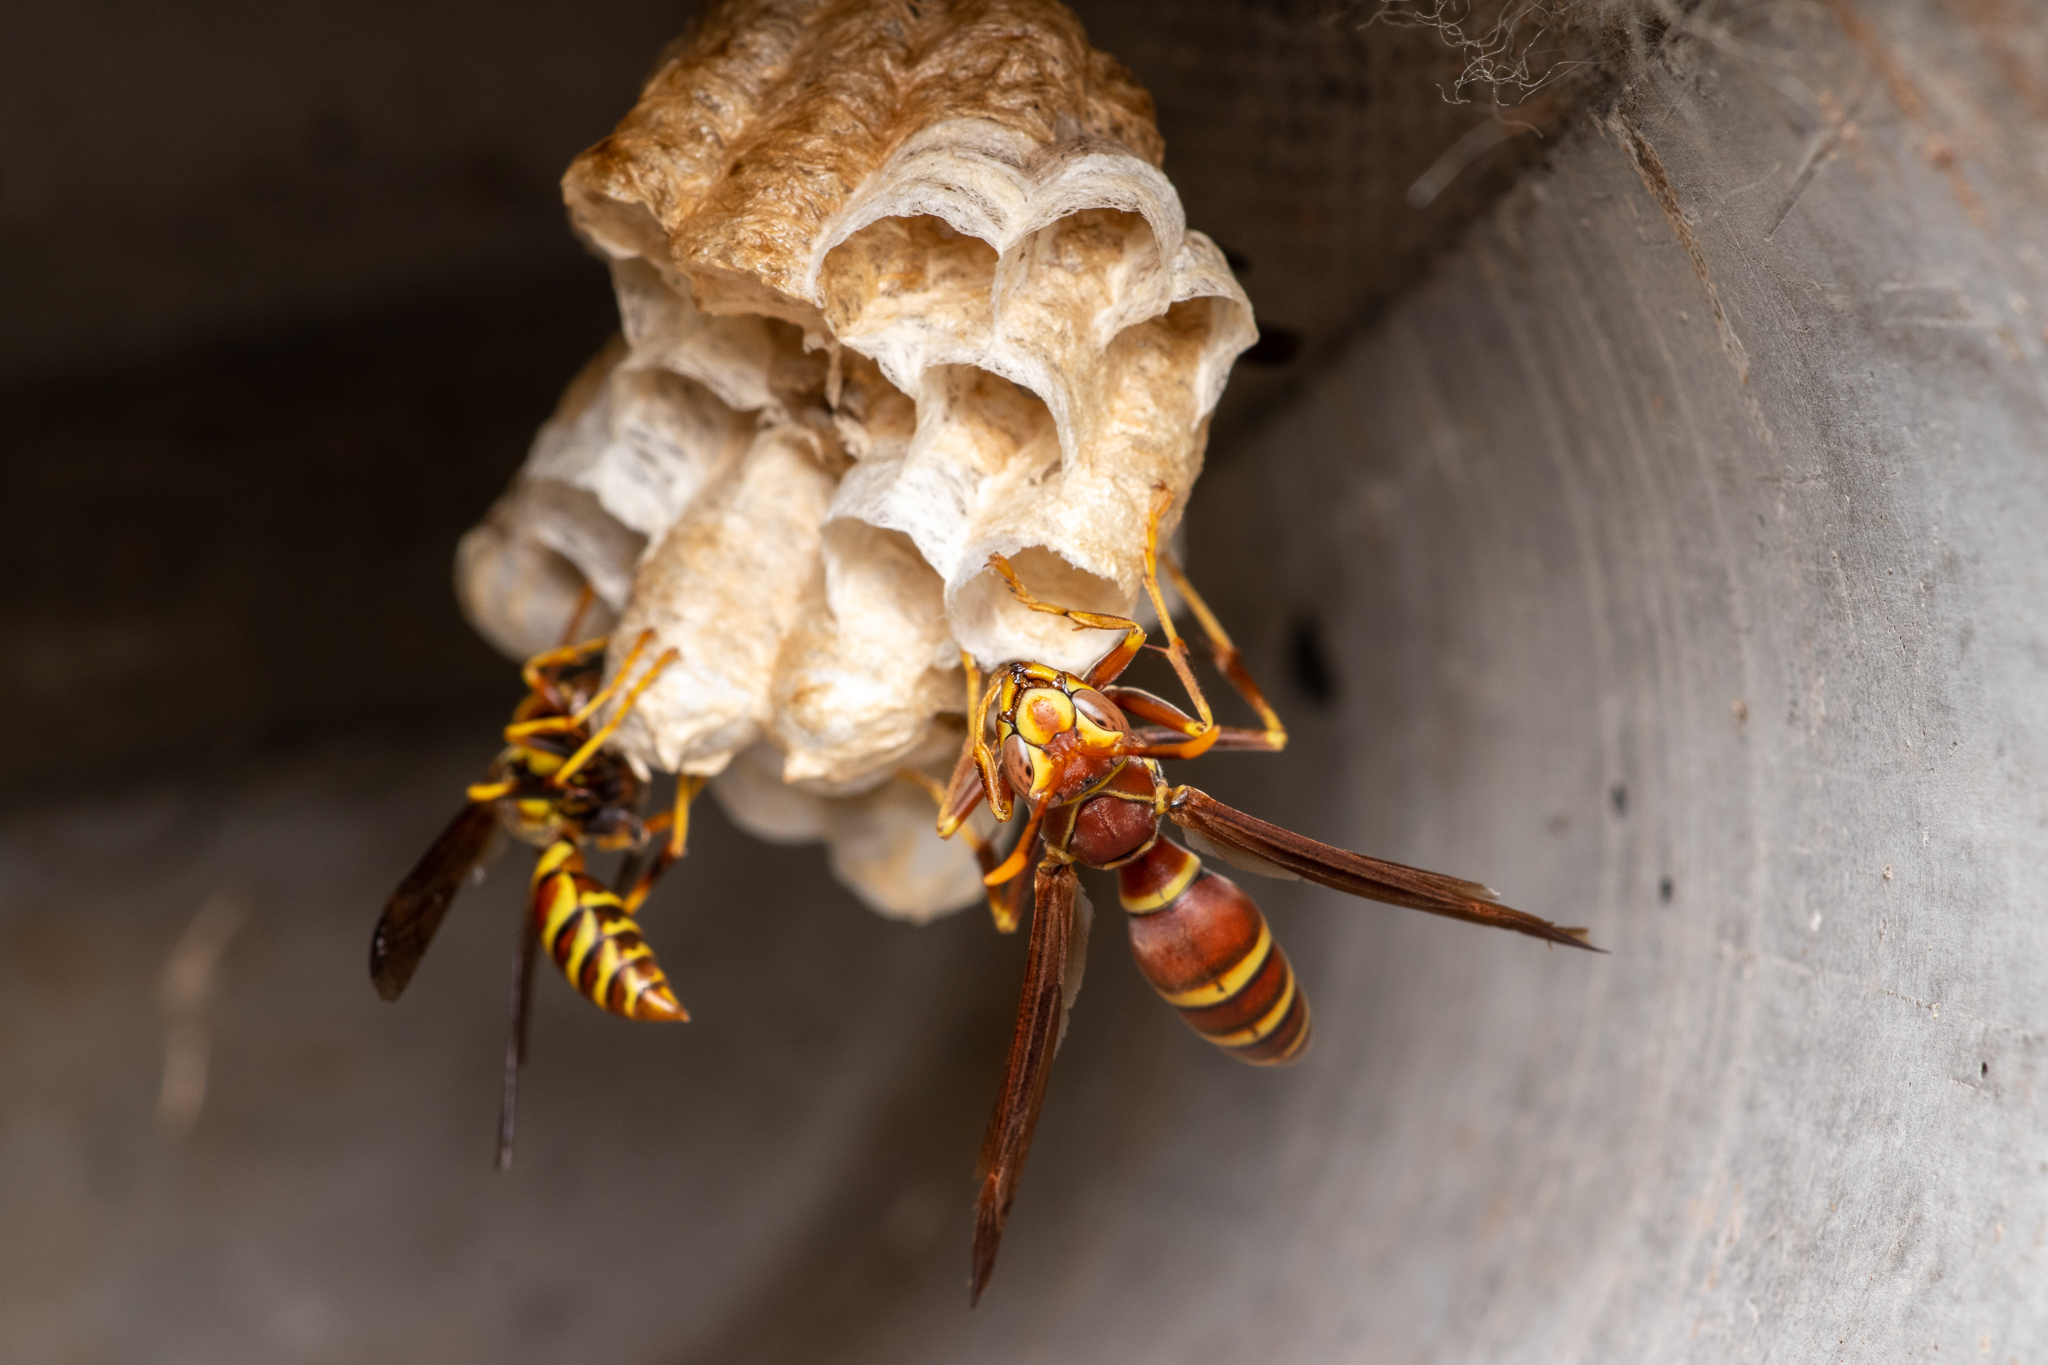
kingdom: Animalia
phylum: Arthropoda
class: Insecta
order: Hymenoptera
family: Eumenidae
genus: Polistes
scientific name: Polistes exclamans
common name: Paper wasp
